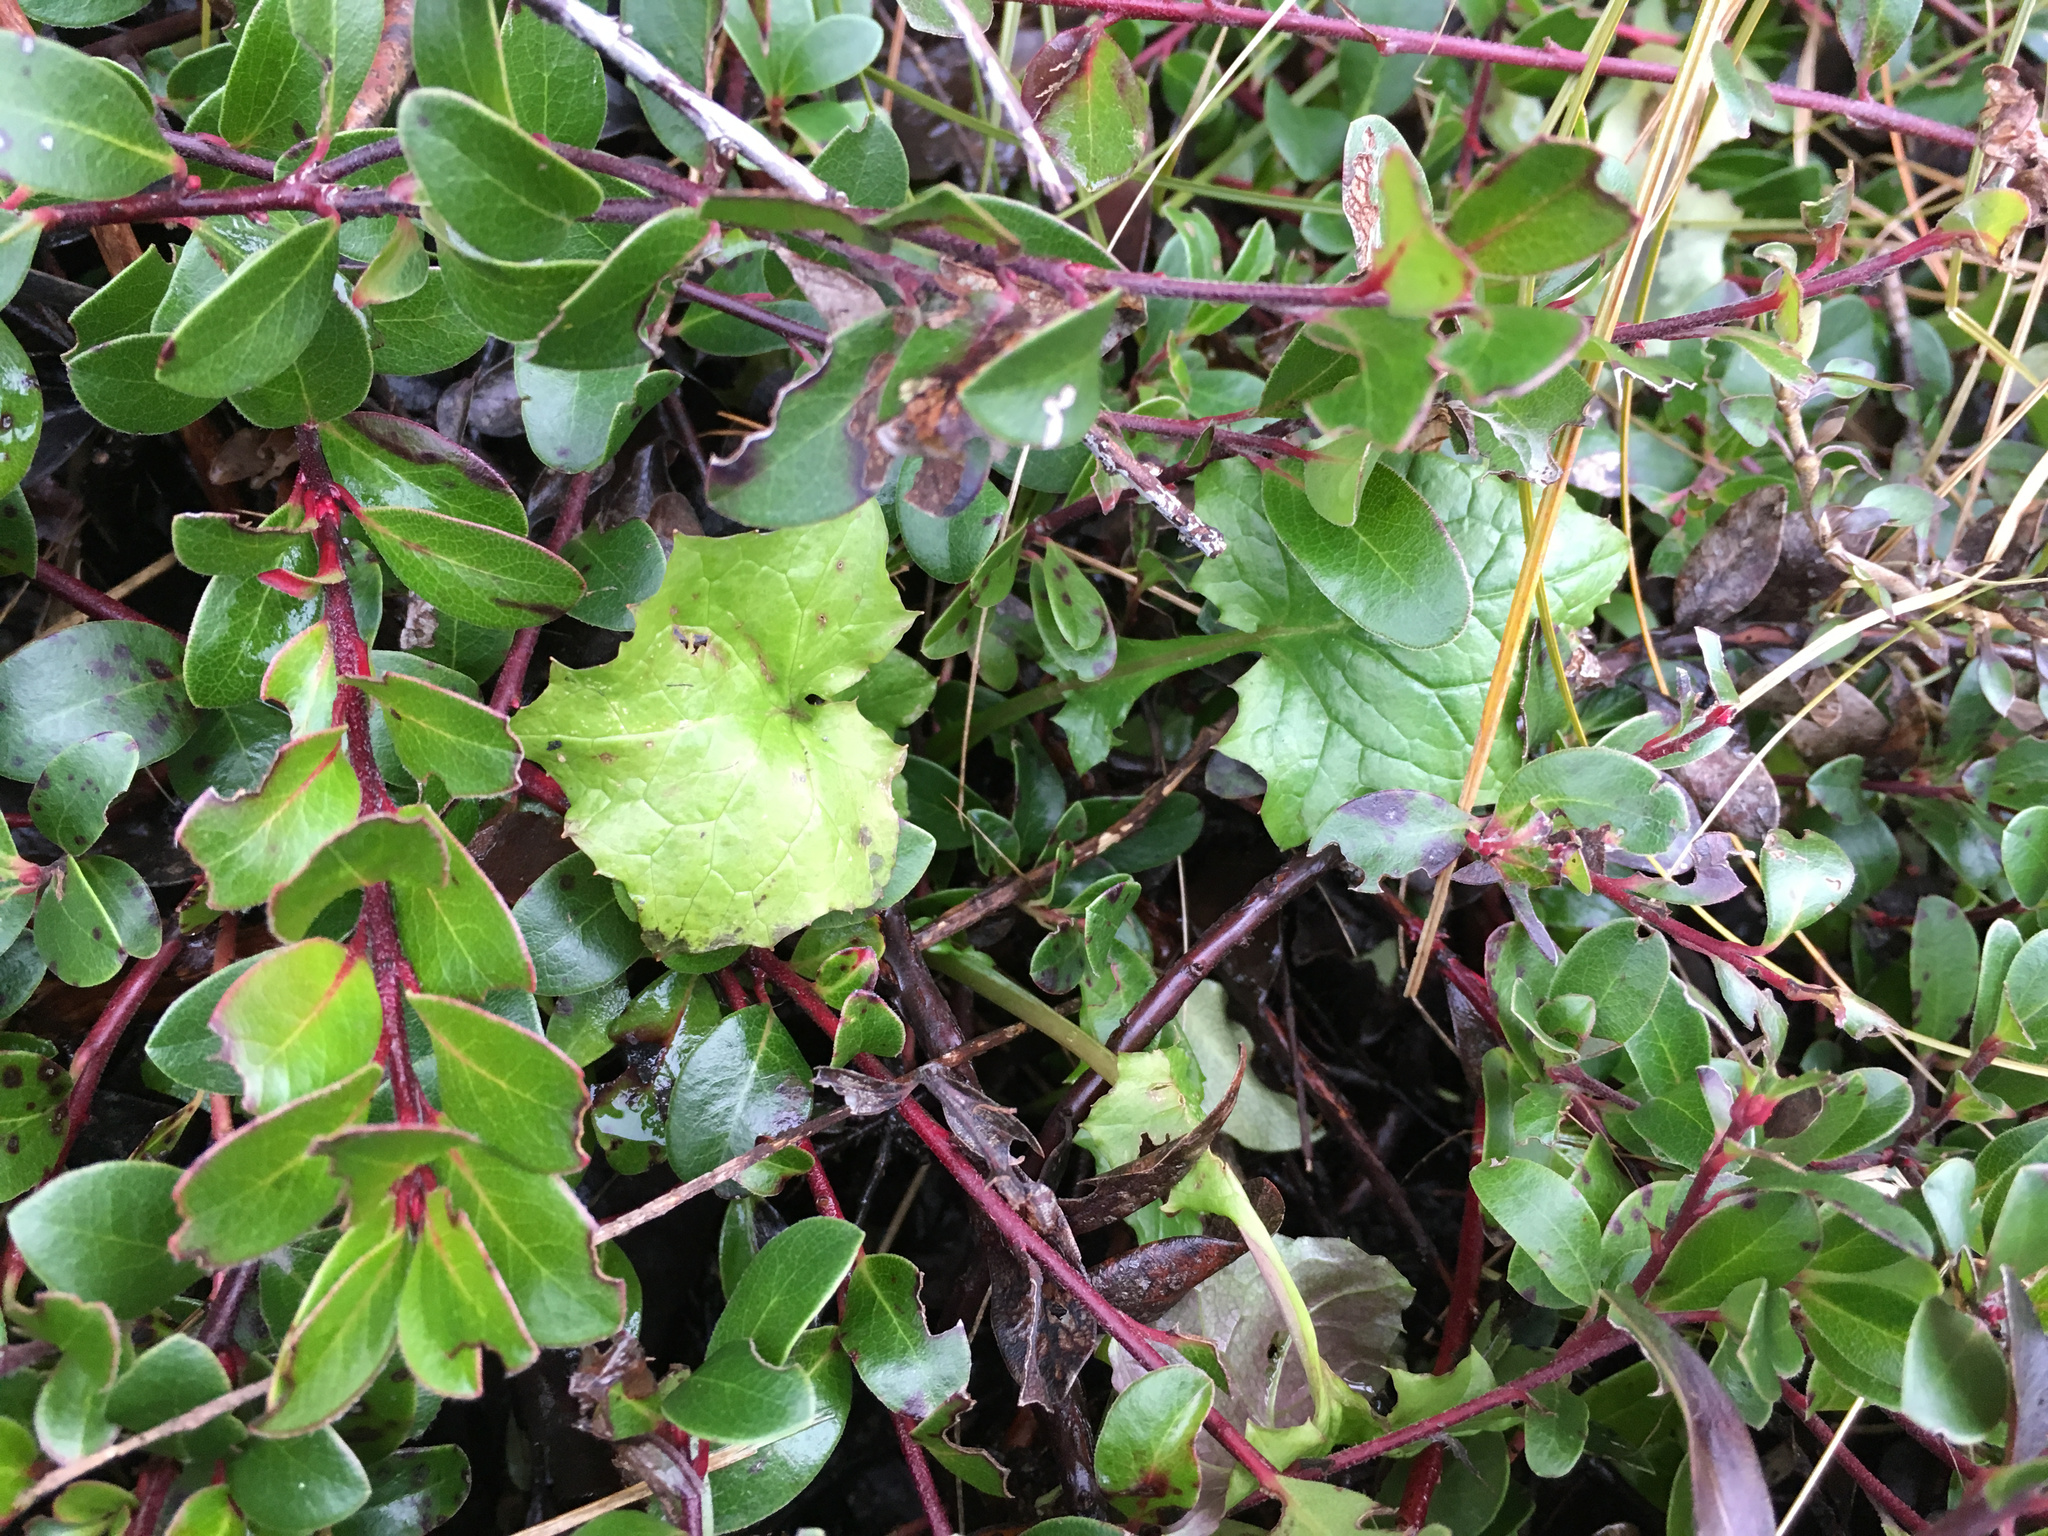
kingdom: Plantae
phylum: Tracheophyta
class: Magnoliopsida
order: Asterales
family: Asteraceae
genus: Mycelis
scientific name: Mycelis muralis
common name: Wall lettuce
